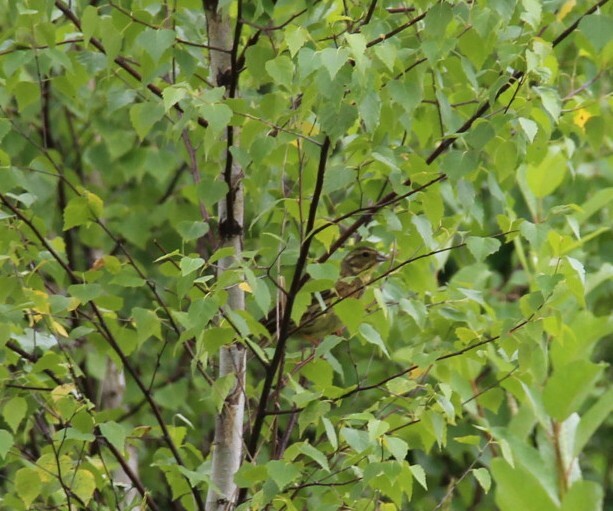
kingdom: Animalia
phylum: Chordata
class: Aves
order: Passeriformes
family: Emberizidae
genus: Emberiza
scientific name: Emberiza citrinella
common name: Yellowhammer
